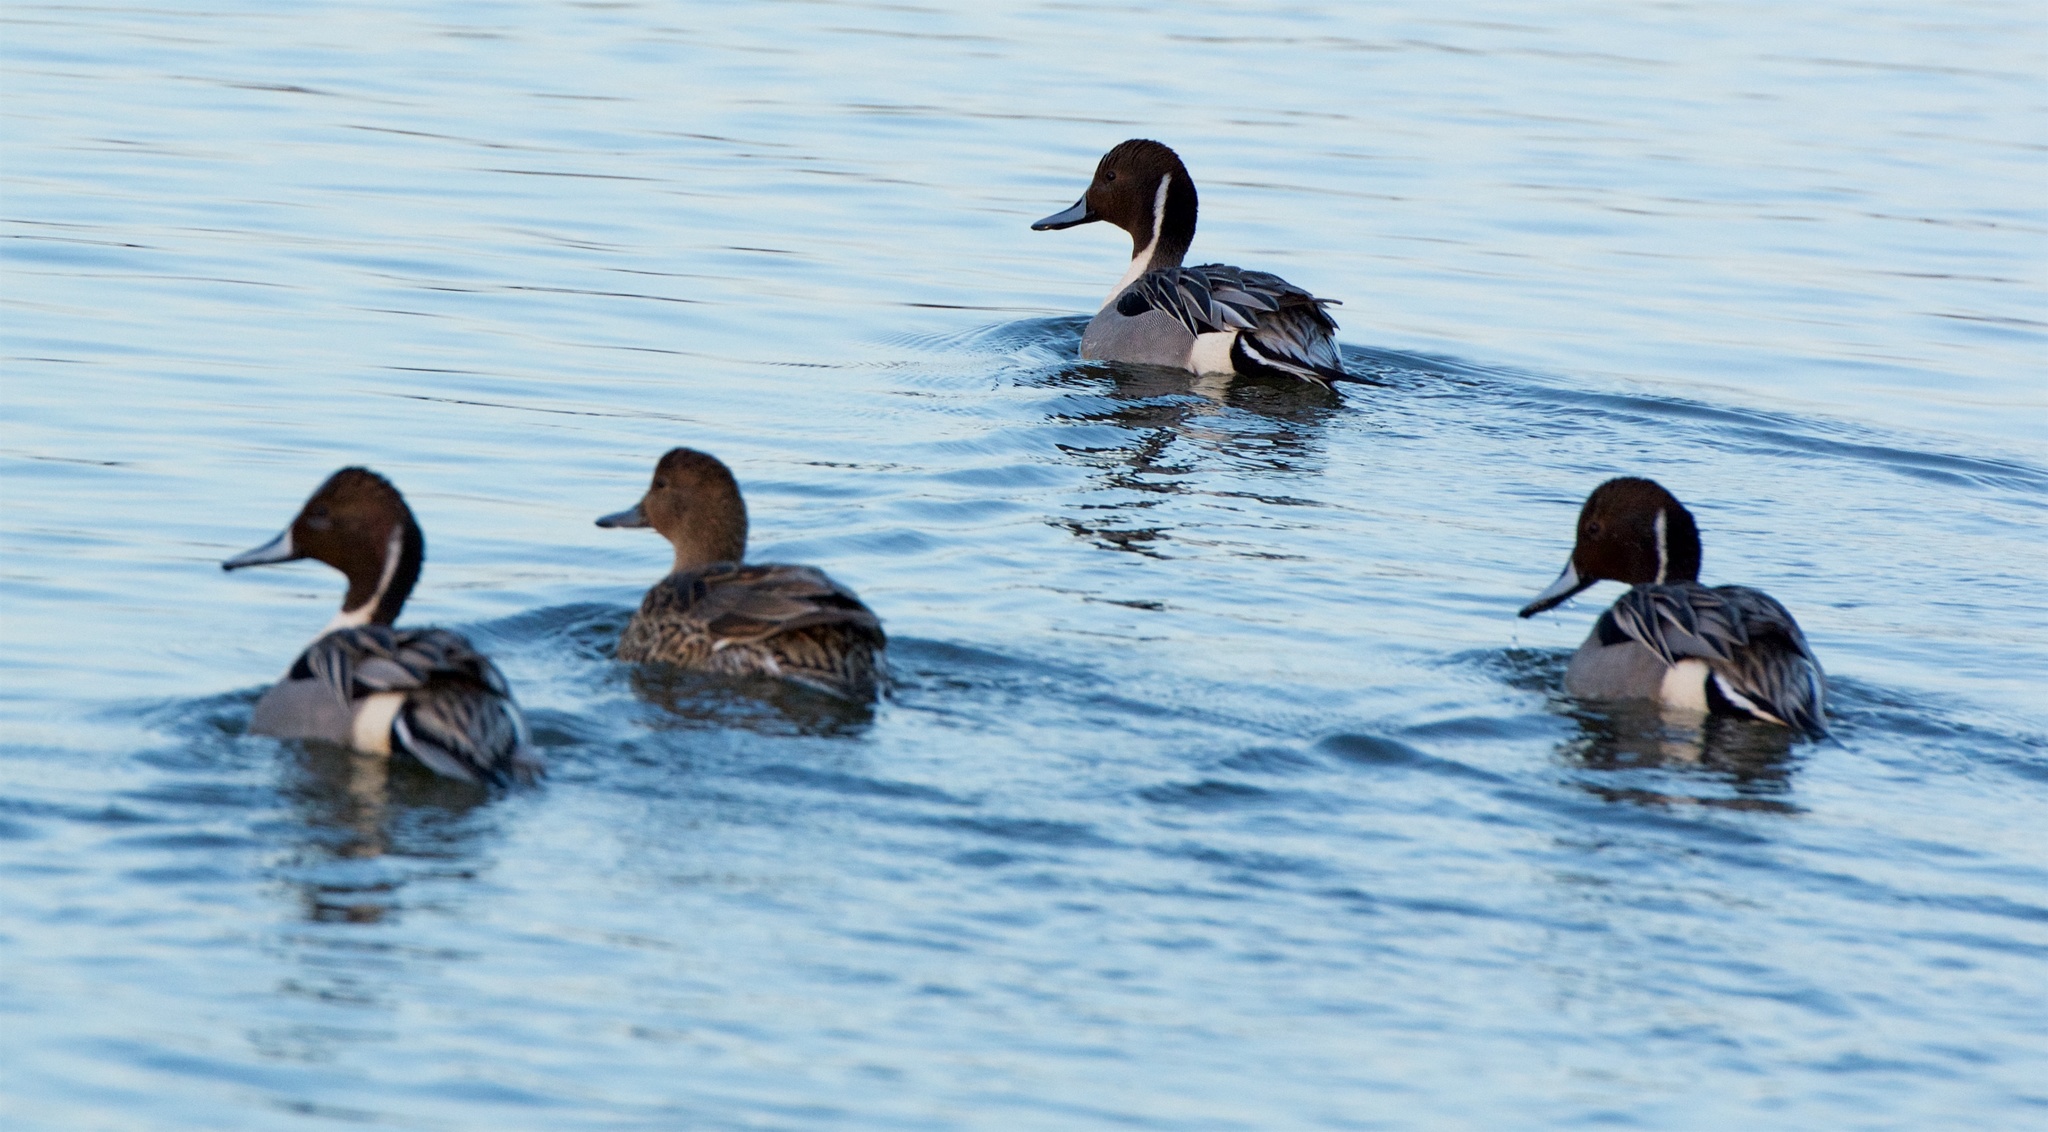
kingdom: Animalia
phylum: Chordata
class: Aves
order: Anseriformes
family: Anatidae
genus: Anas
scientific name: Anas acuta
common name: Northern pintail
